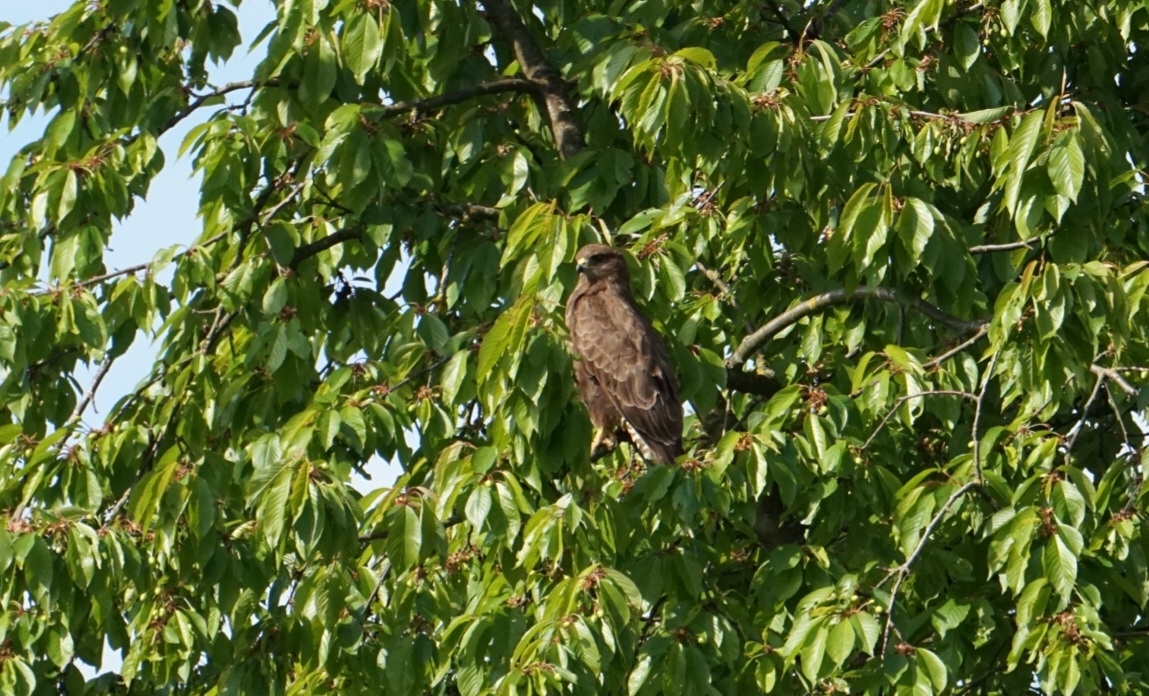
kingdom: Animalia
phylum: Chordata
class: Aves
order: Accipitriformes
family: Accipitridae
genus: Buteo
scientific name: Buteo buteo
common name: Common buzzard
